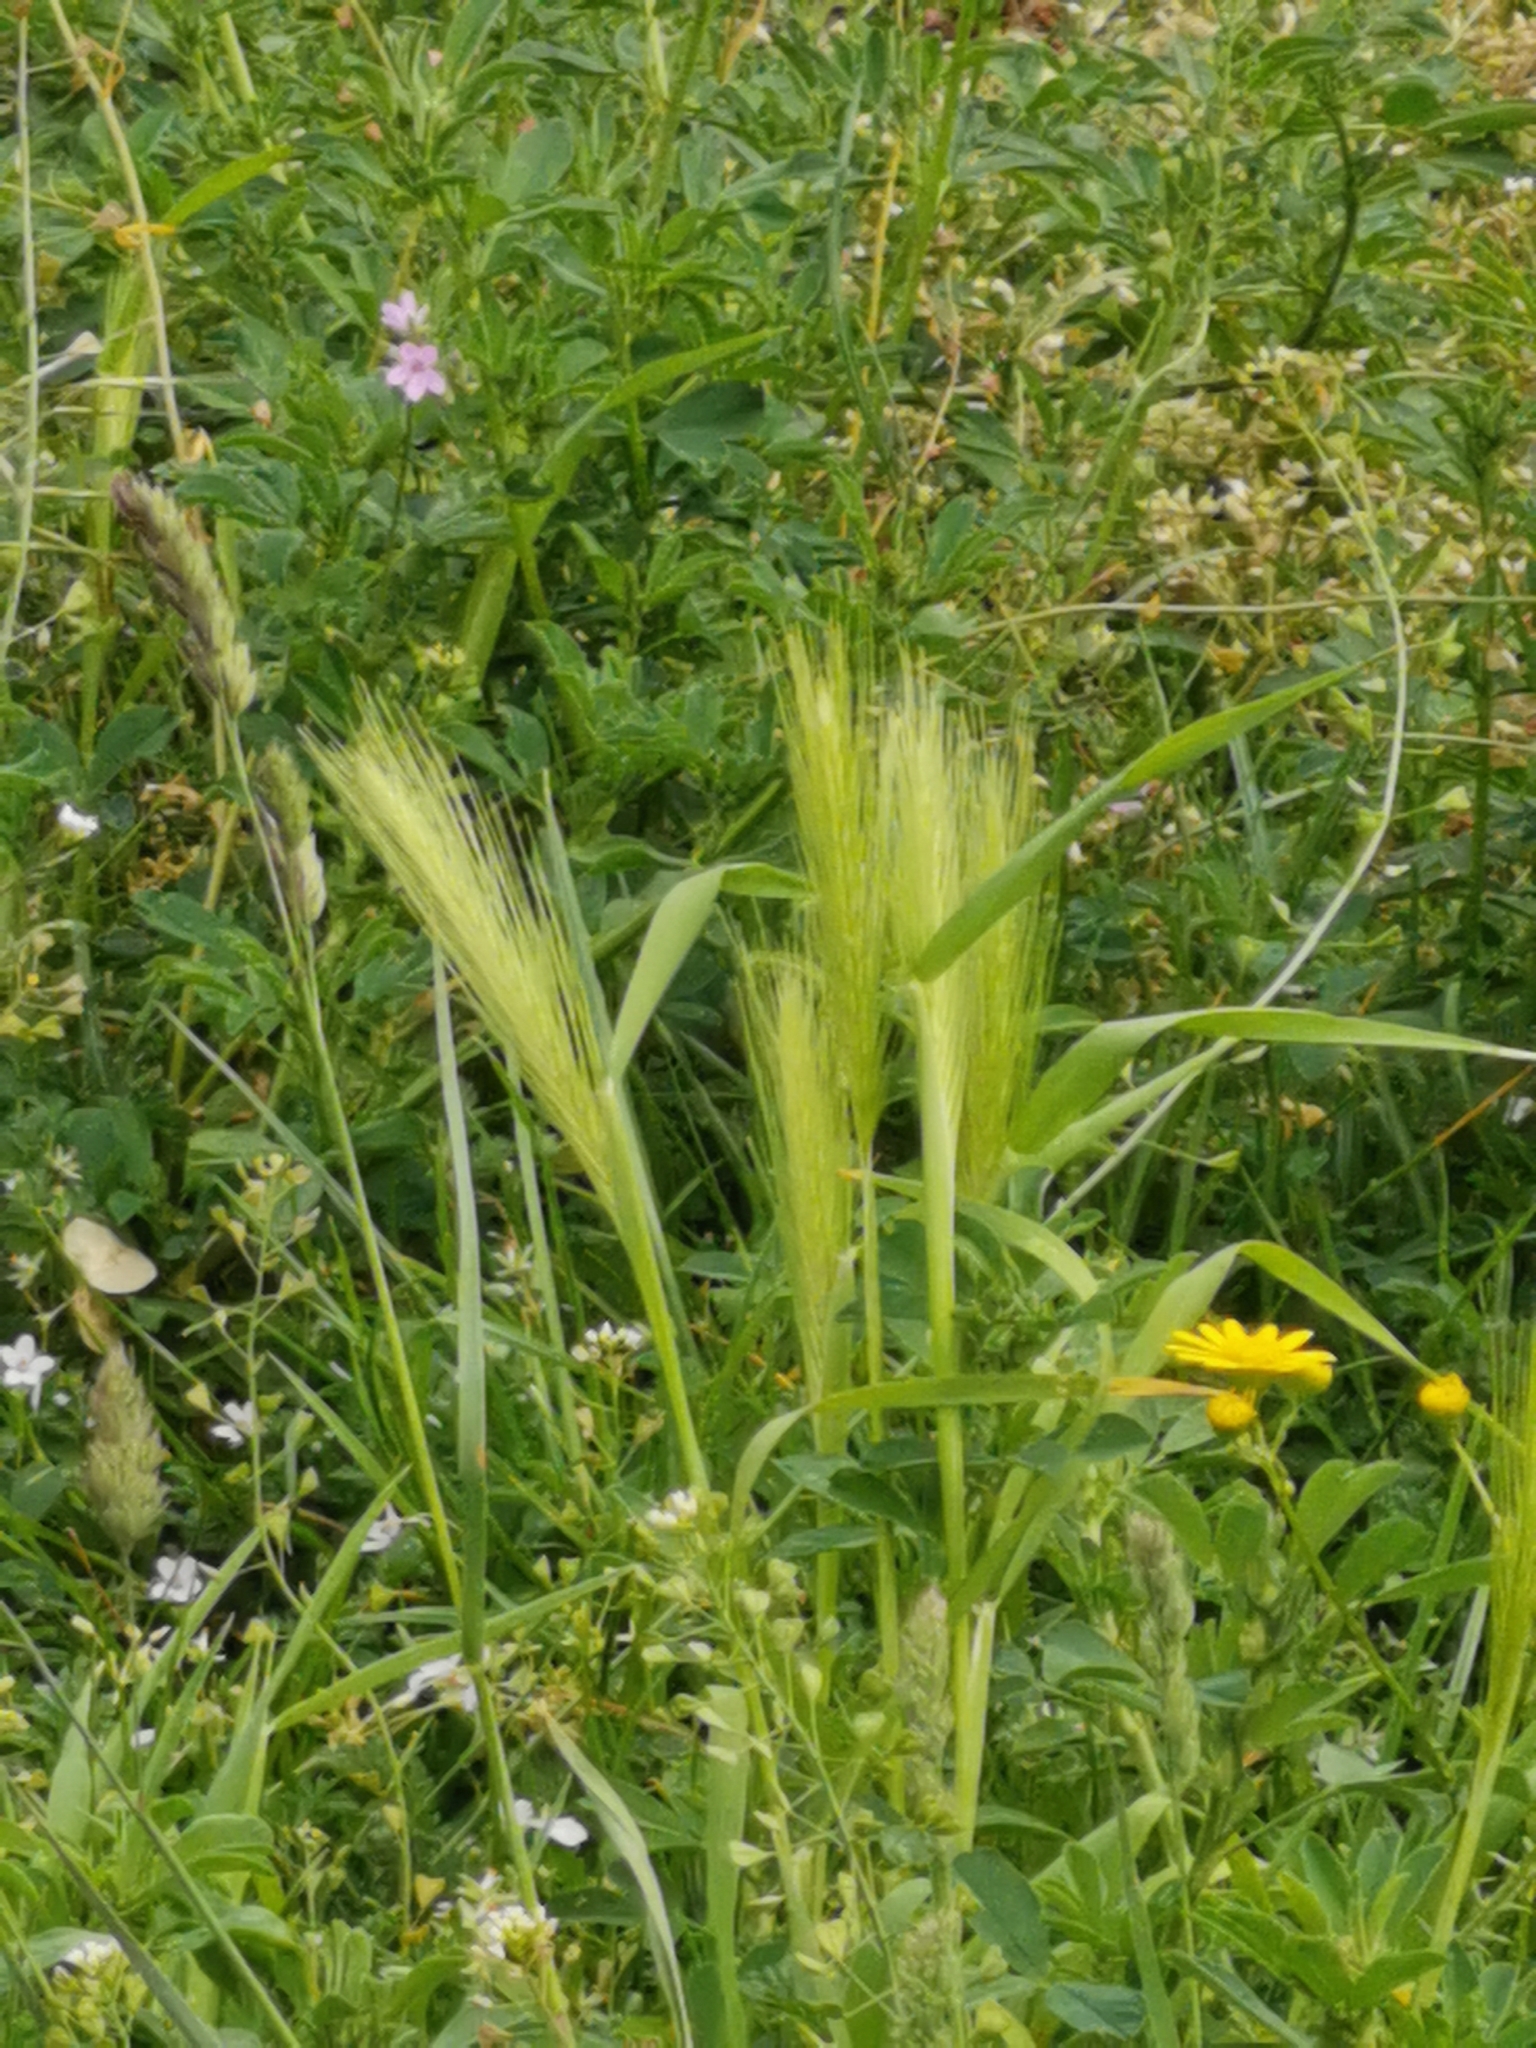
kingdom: Plantae
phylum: Tracheophyta
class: Liliopsida
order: Poales
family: Poaceae
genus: Hordeum
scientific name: Hordeum murinum
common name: Wall barley
